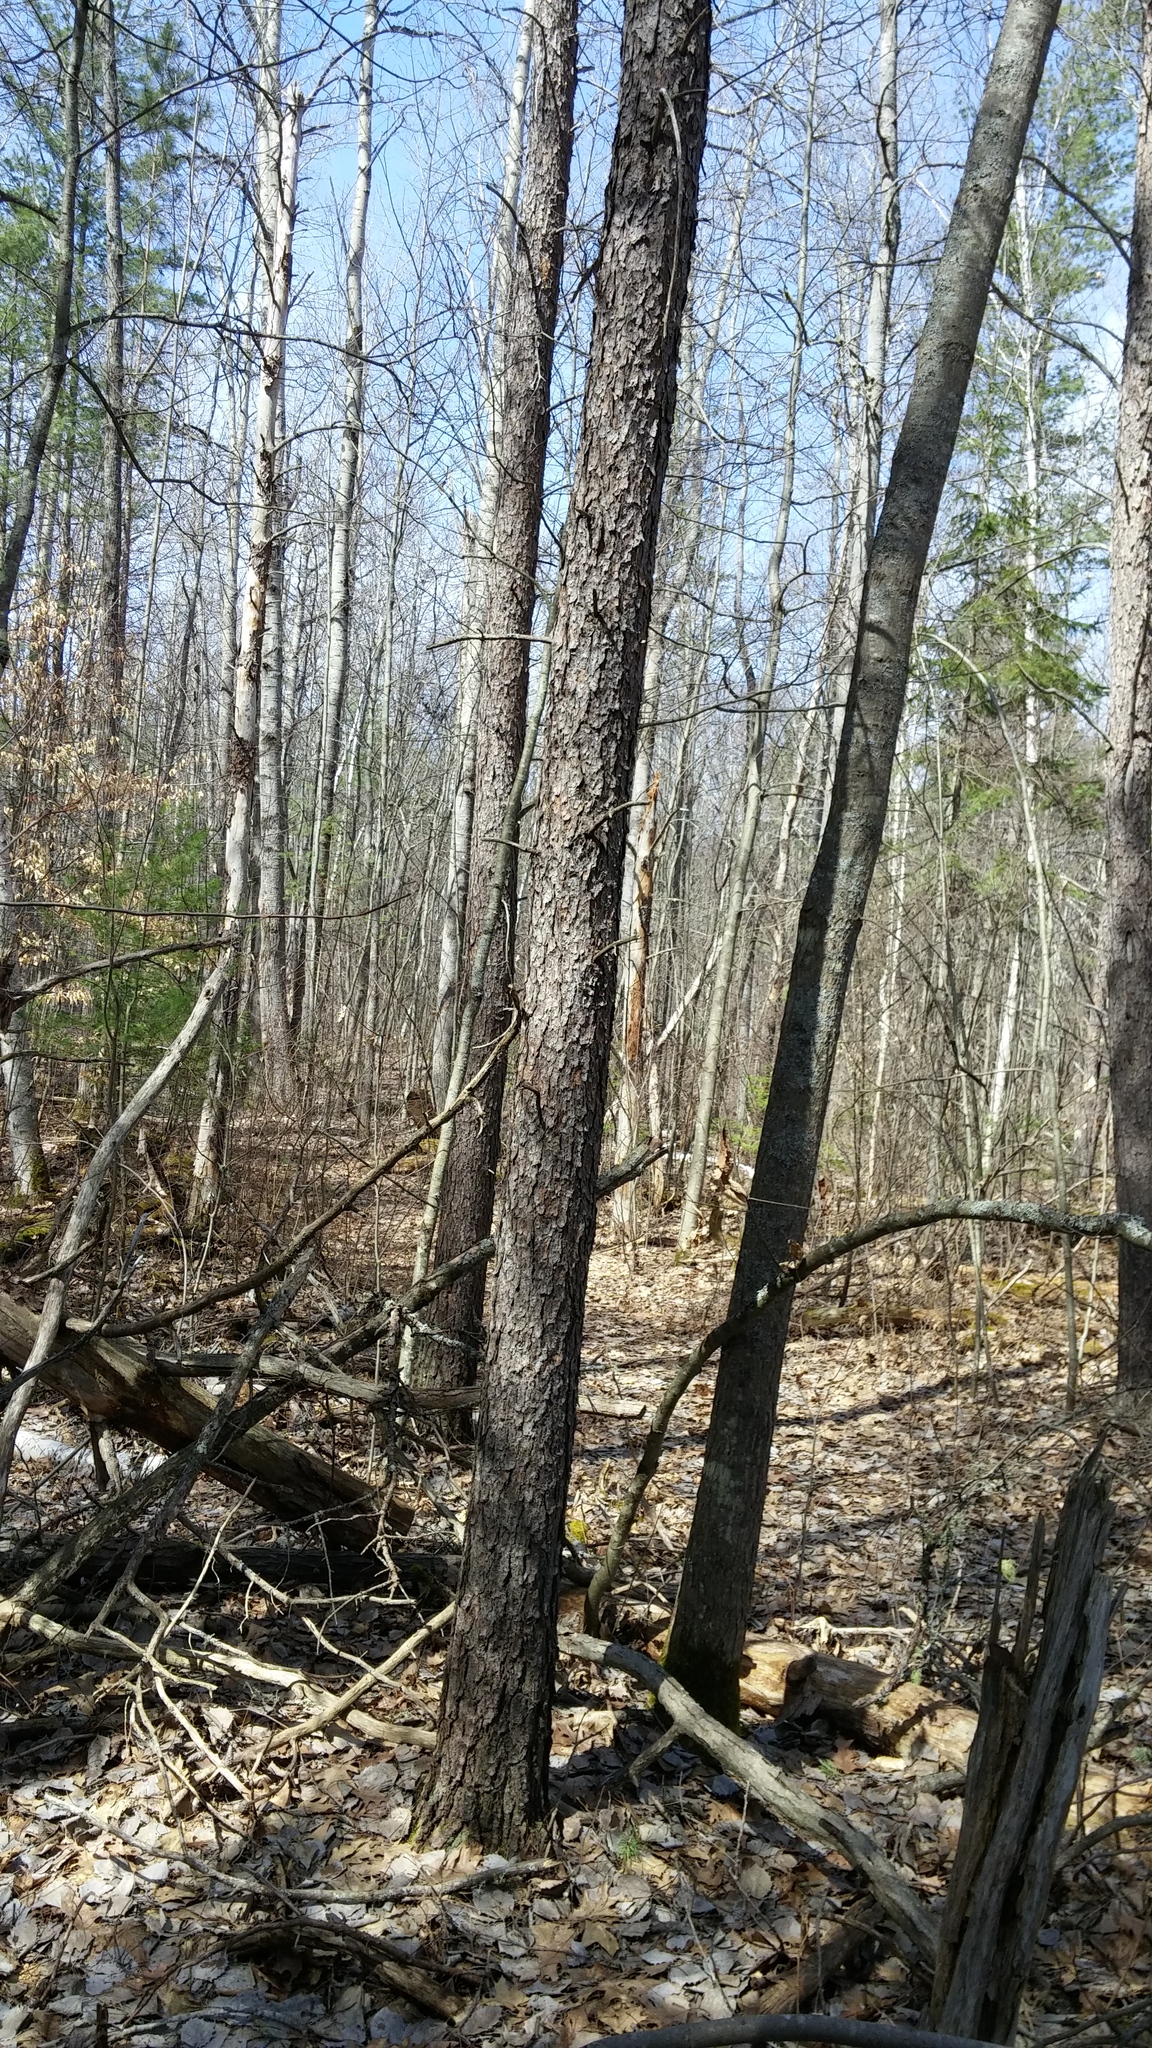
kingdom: Plantae
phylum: Tracheophyta
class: Pinopsida
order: Pinales
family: Pinaceae
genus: Pinus
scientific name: Pinus banksiana
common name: Jack pine
